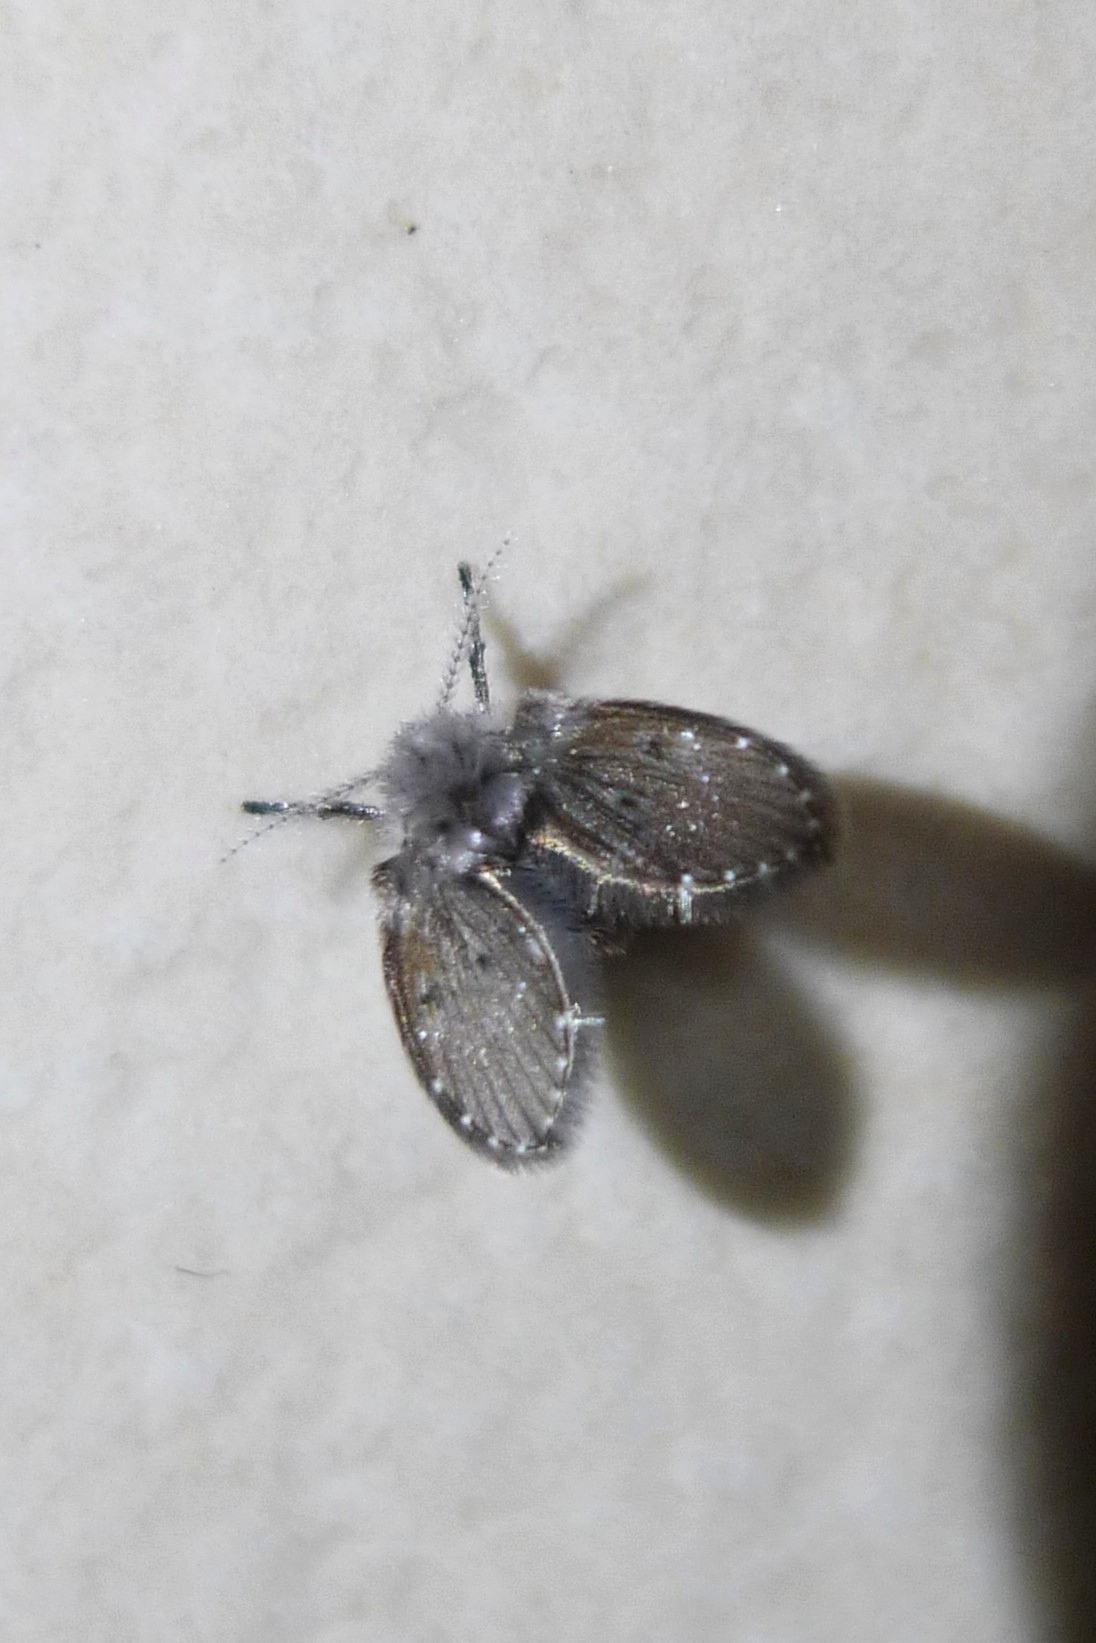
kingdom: Animalia
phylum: Arthropoda
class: Insecta
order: Diptera
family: Psychodidae
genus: Clogmia
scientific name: Clogmia albipunctatus
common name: White-spotted moth fly
